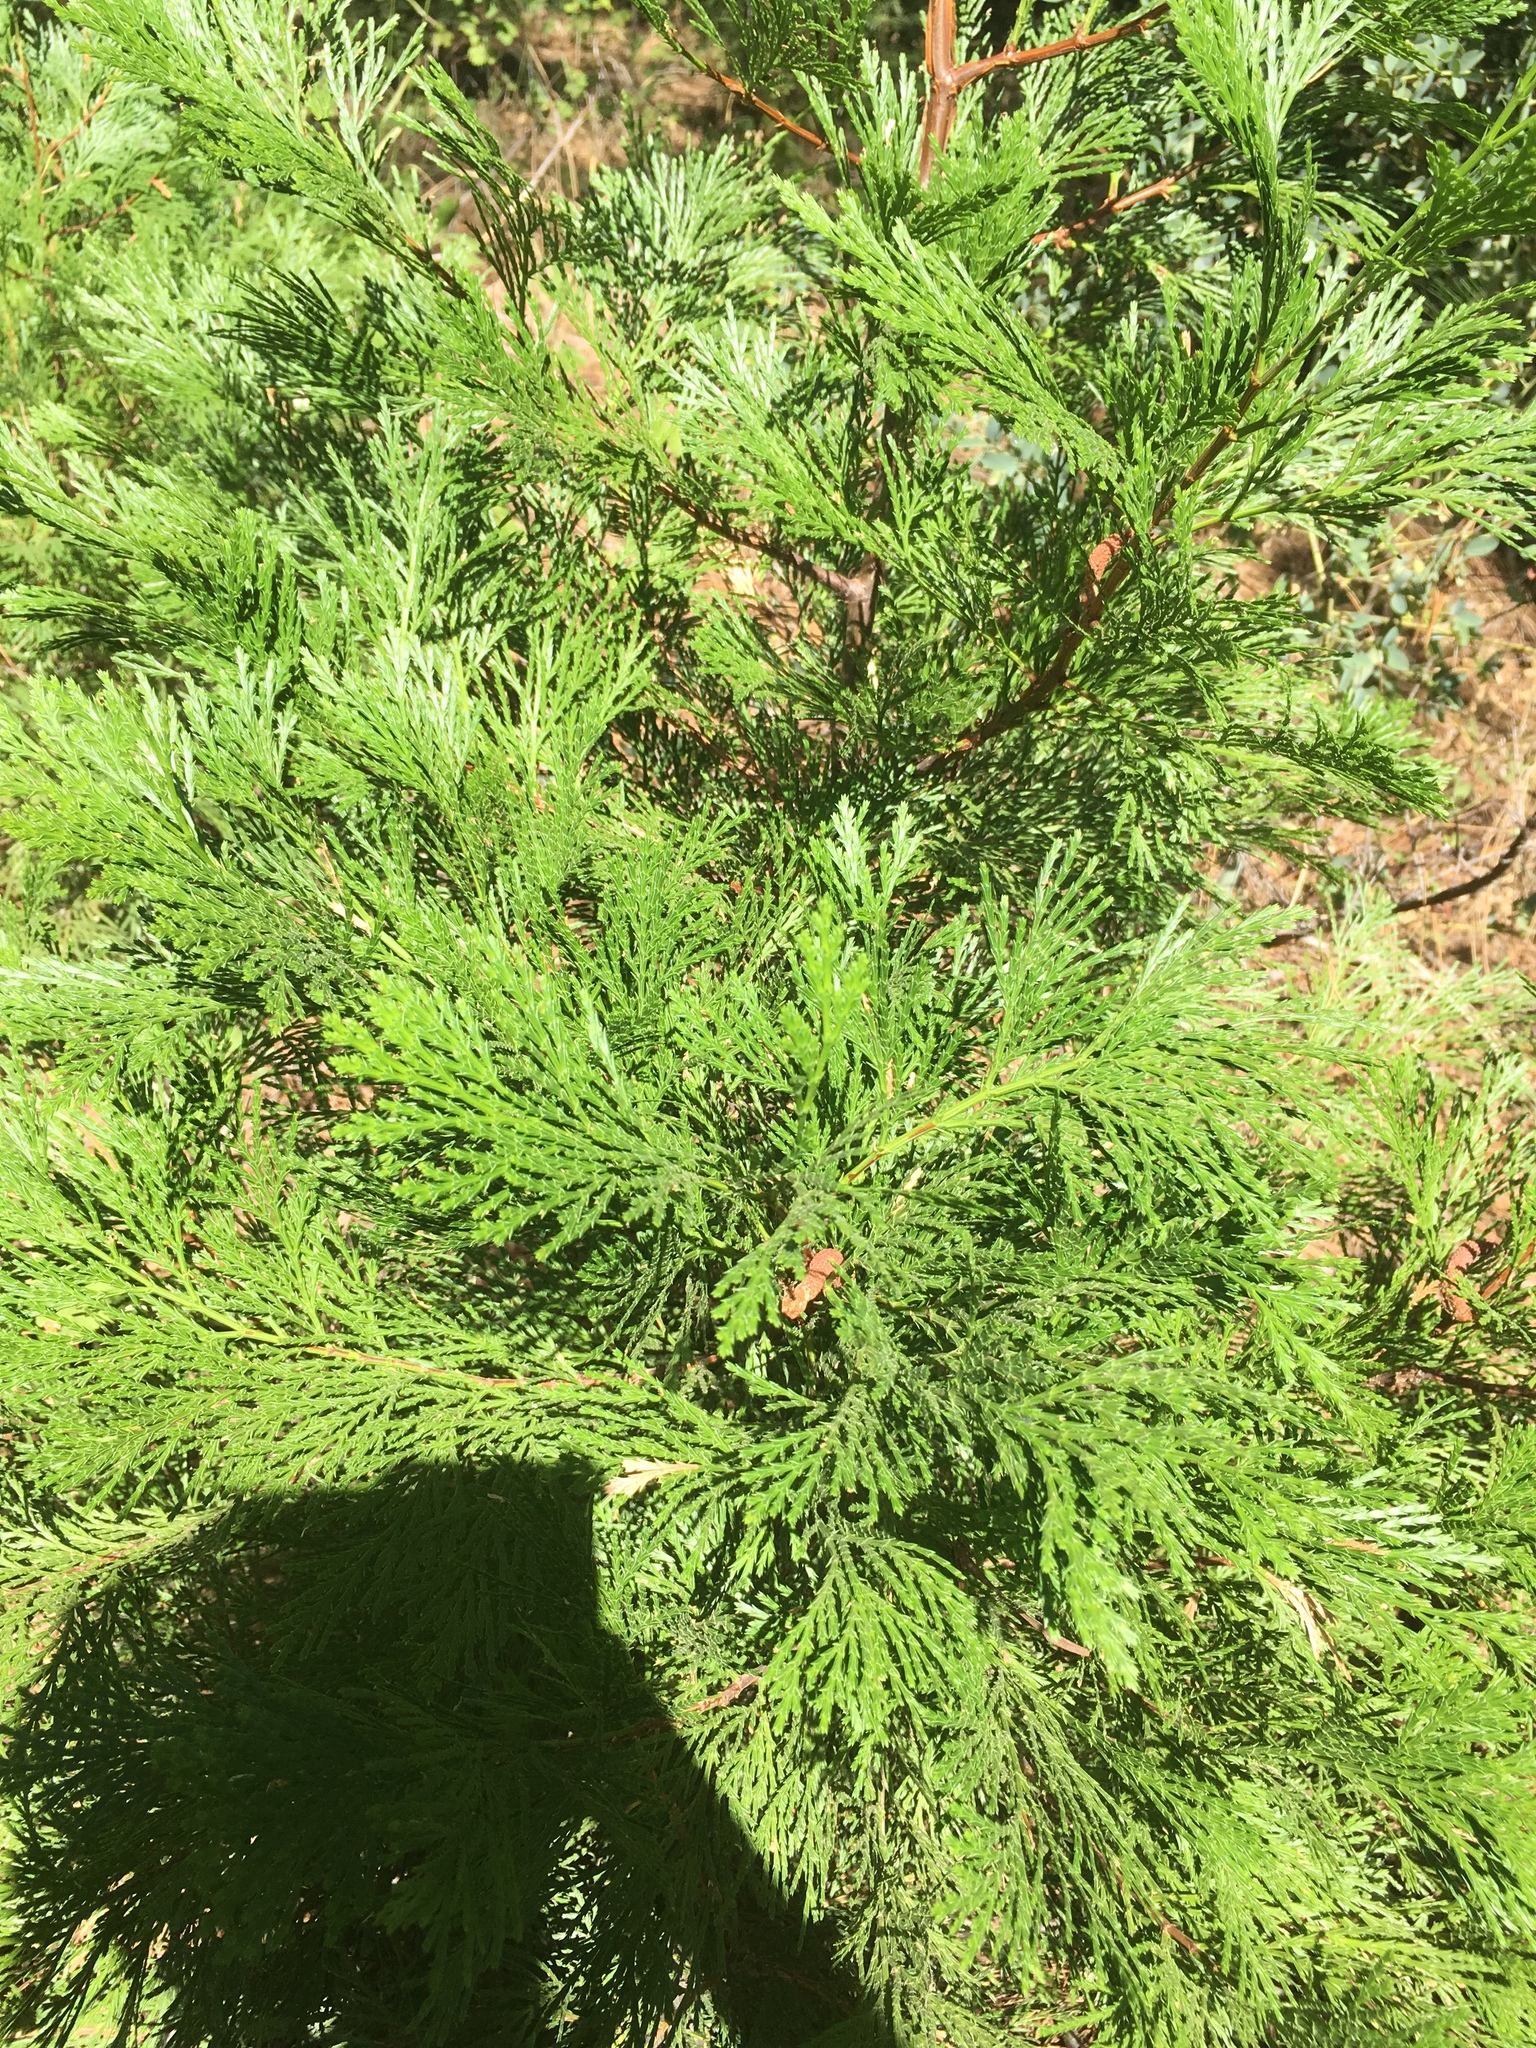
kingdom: Plantae
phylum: Tracheophyta
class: Pinopsida
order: Pinales
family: Cupressaceae
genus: Calocedrus
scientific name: Calocedrus decurrens
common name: Californian incense-cedar
